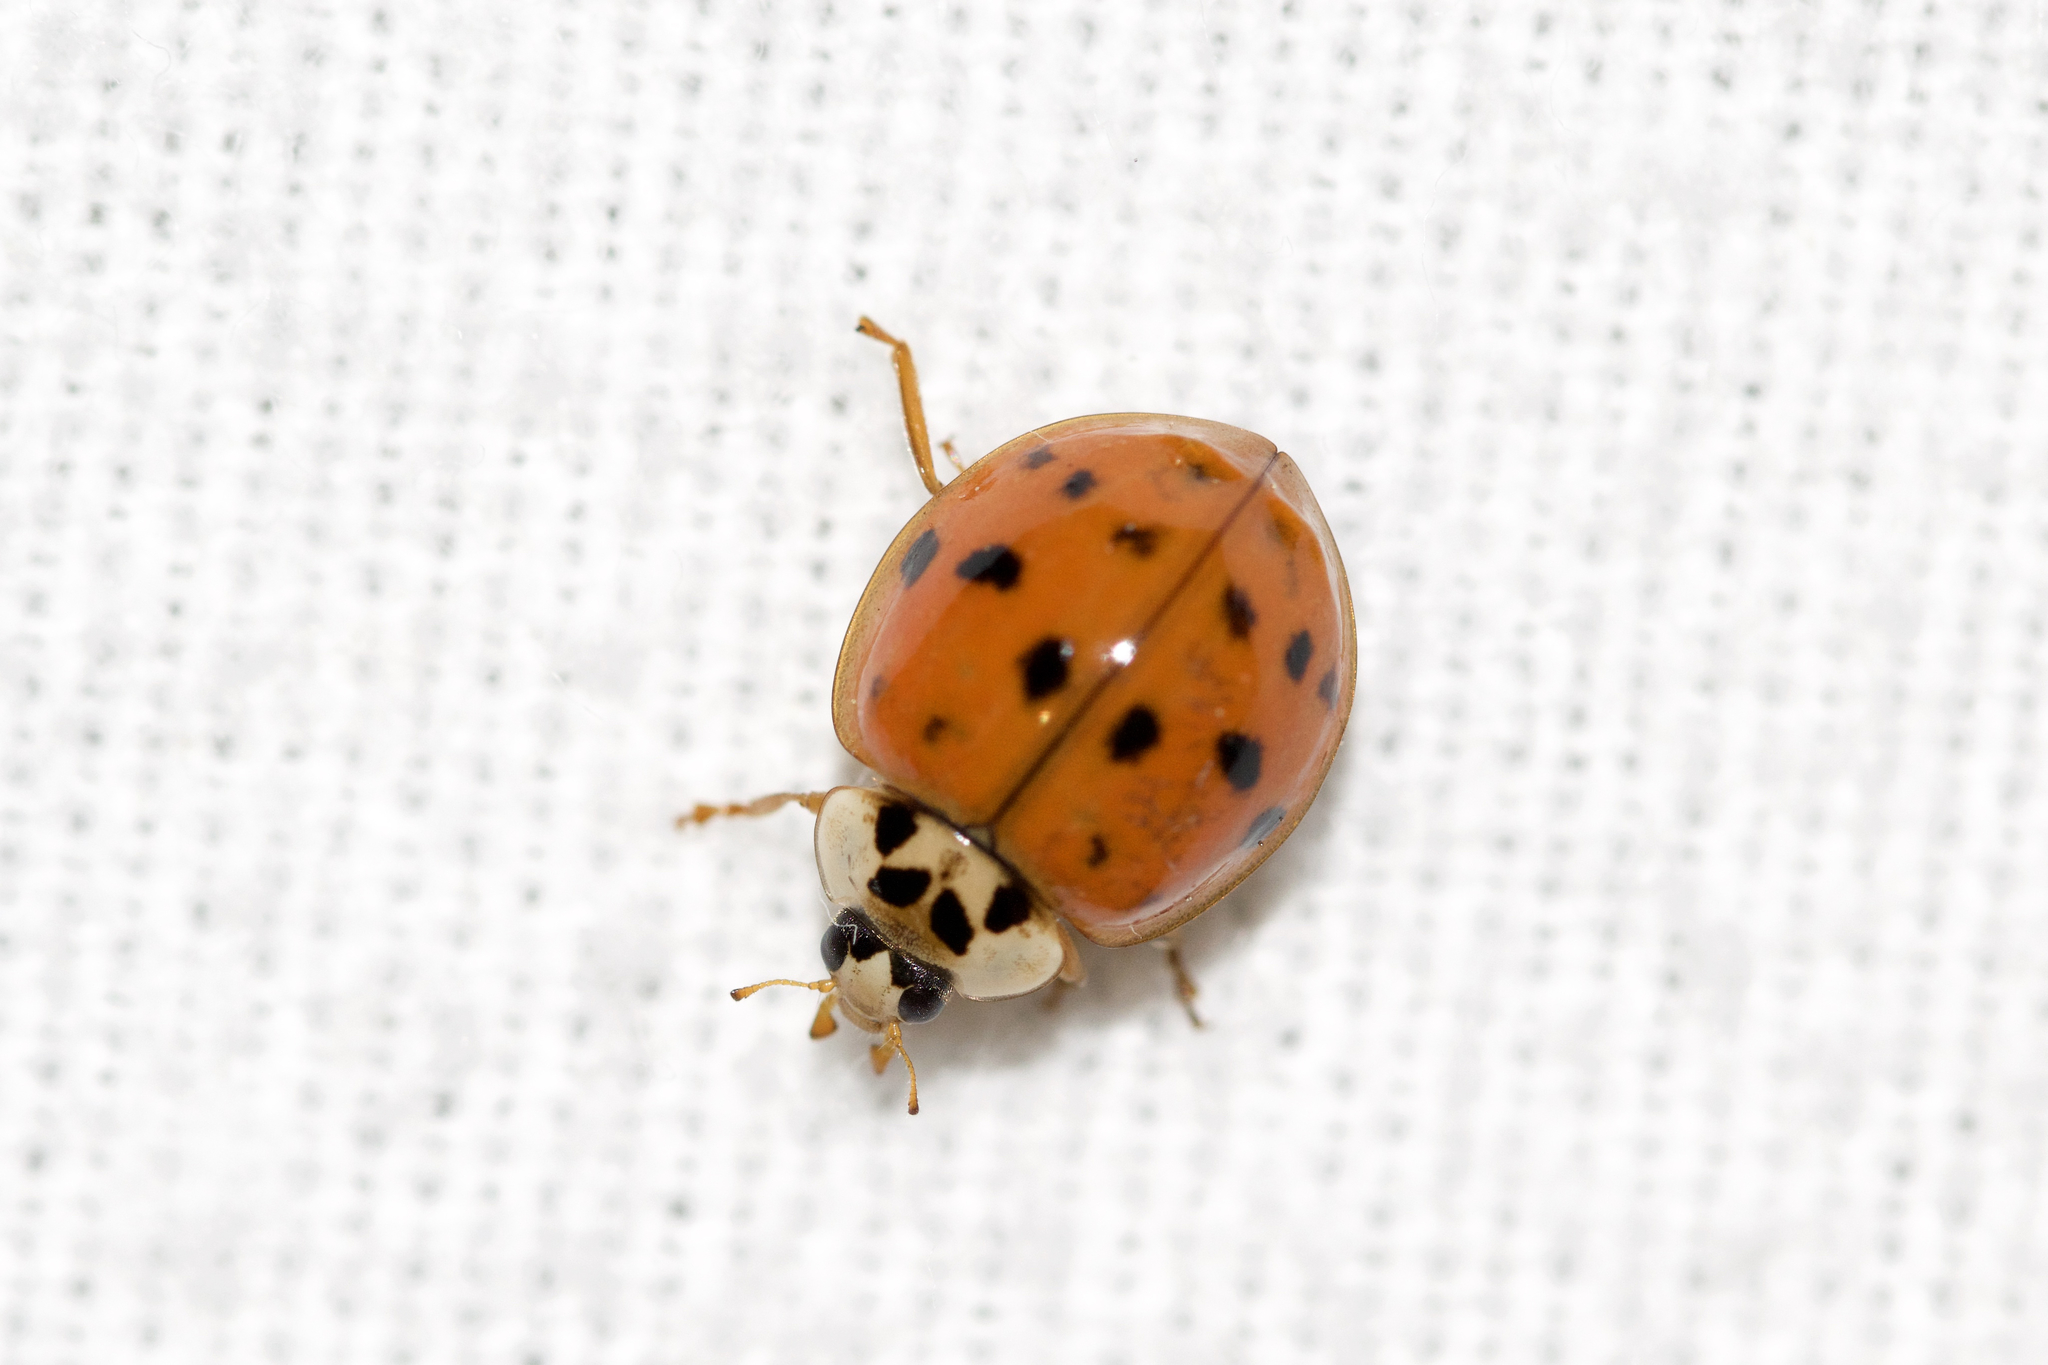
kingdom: Animalia
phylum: Arthropoda
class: Insecta
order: Coleoptera
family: Coccinellidae
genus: Harmonia
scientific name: Harmonia axyridis
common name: Harlequin ladybird
